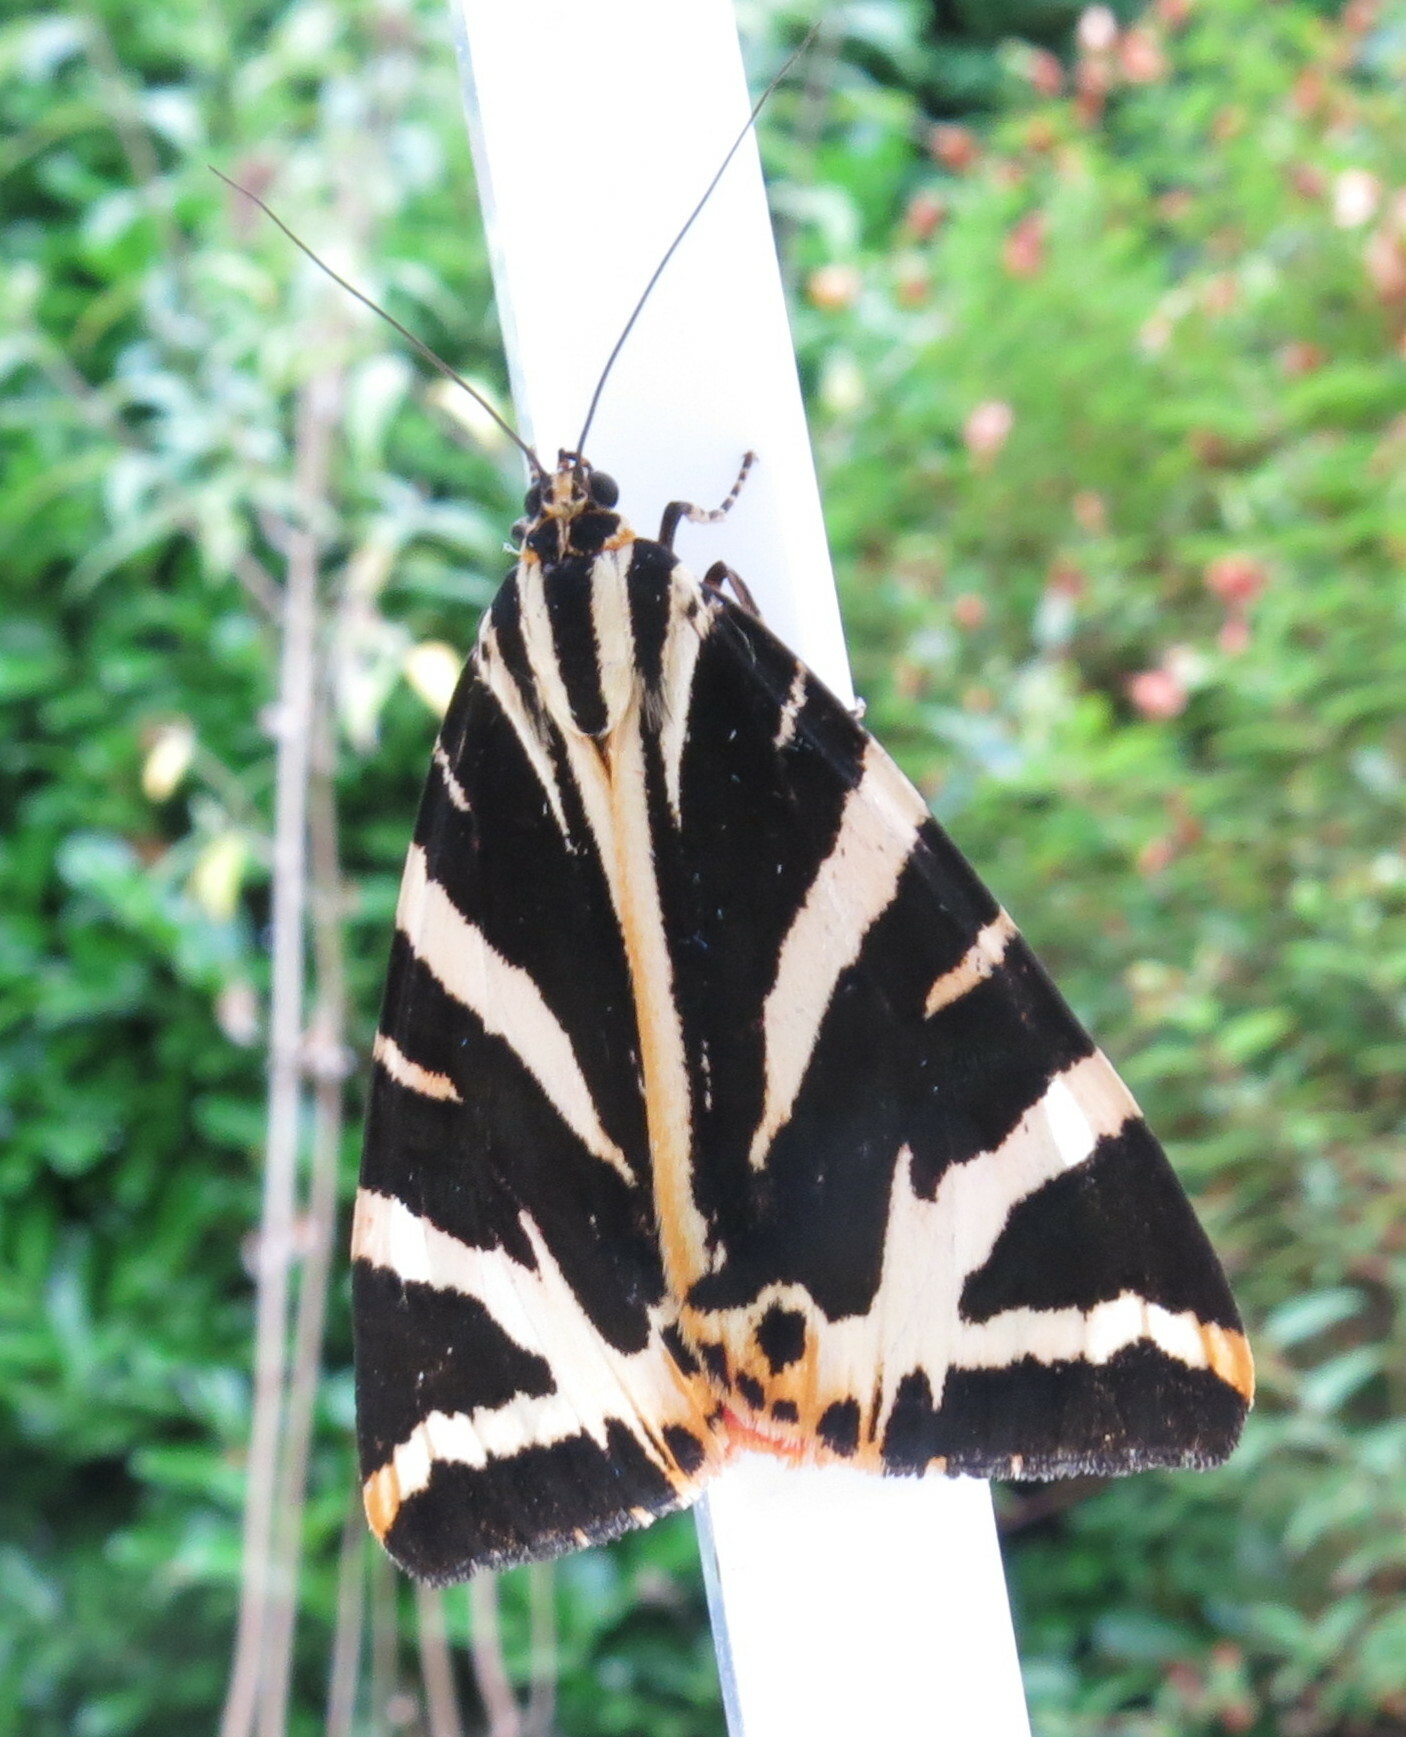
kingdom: Animalia
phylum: Arthropoda
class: Insecta
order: Lepidoptera
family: Erebidae
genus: Euplagia
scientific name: Euplagia quadripunctaria
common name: Jersey tiger
